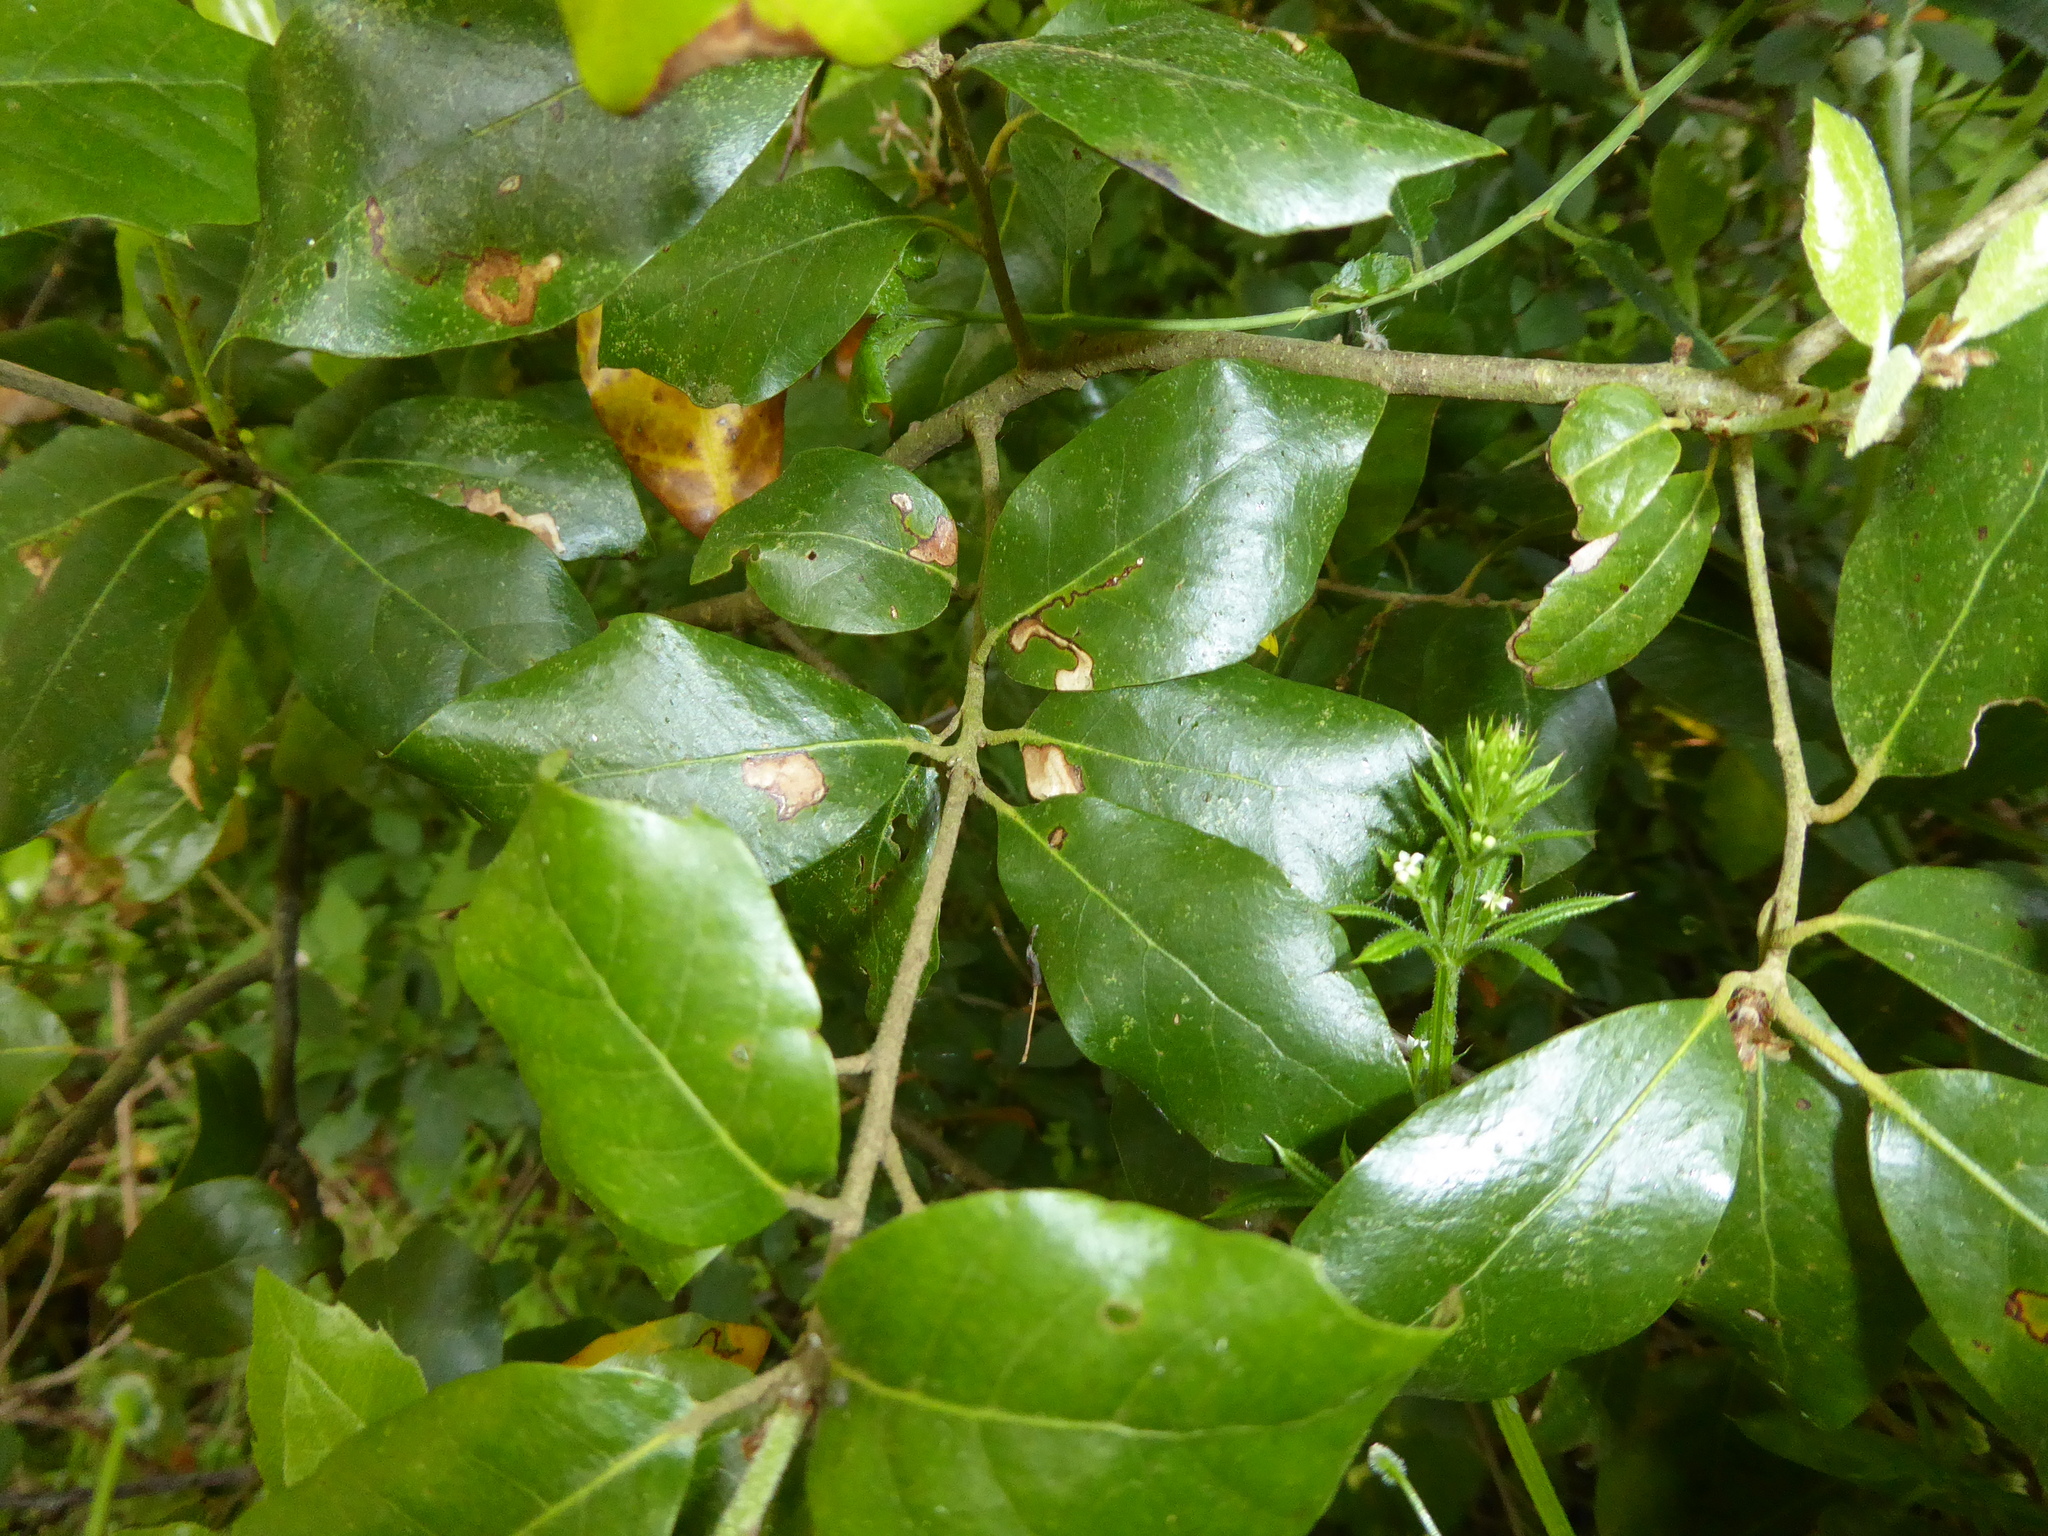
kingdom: Animalia
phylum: Arthropoda
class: Insecta
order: Lepidoptera
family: Nepticulidae
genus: Ectoedemia
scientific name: Ectoedemia heringella
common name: New holm-oak pigmy
